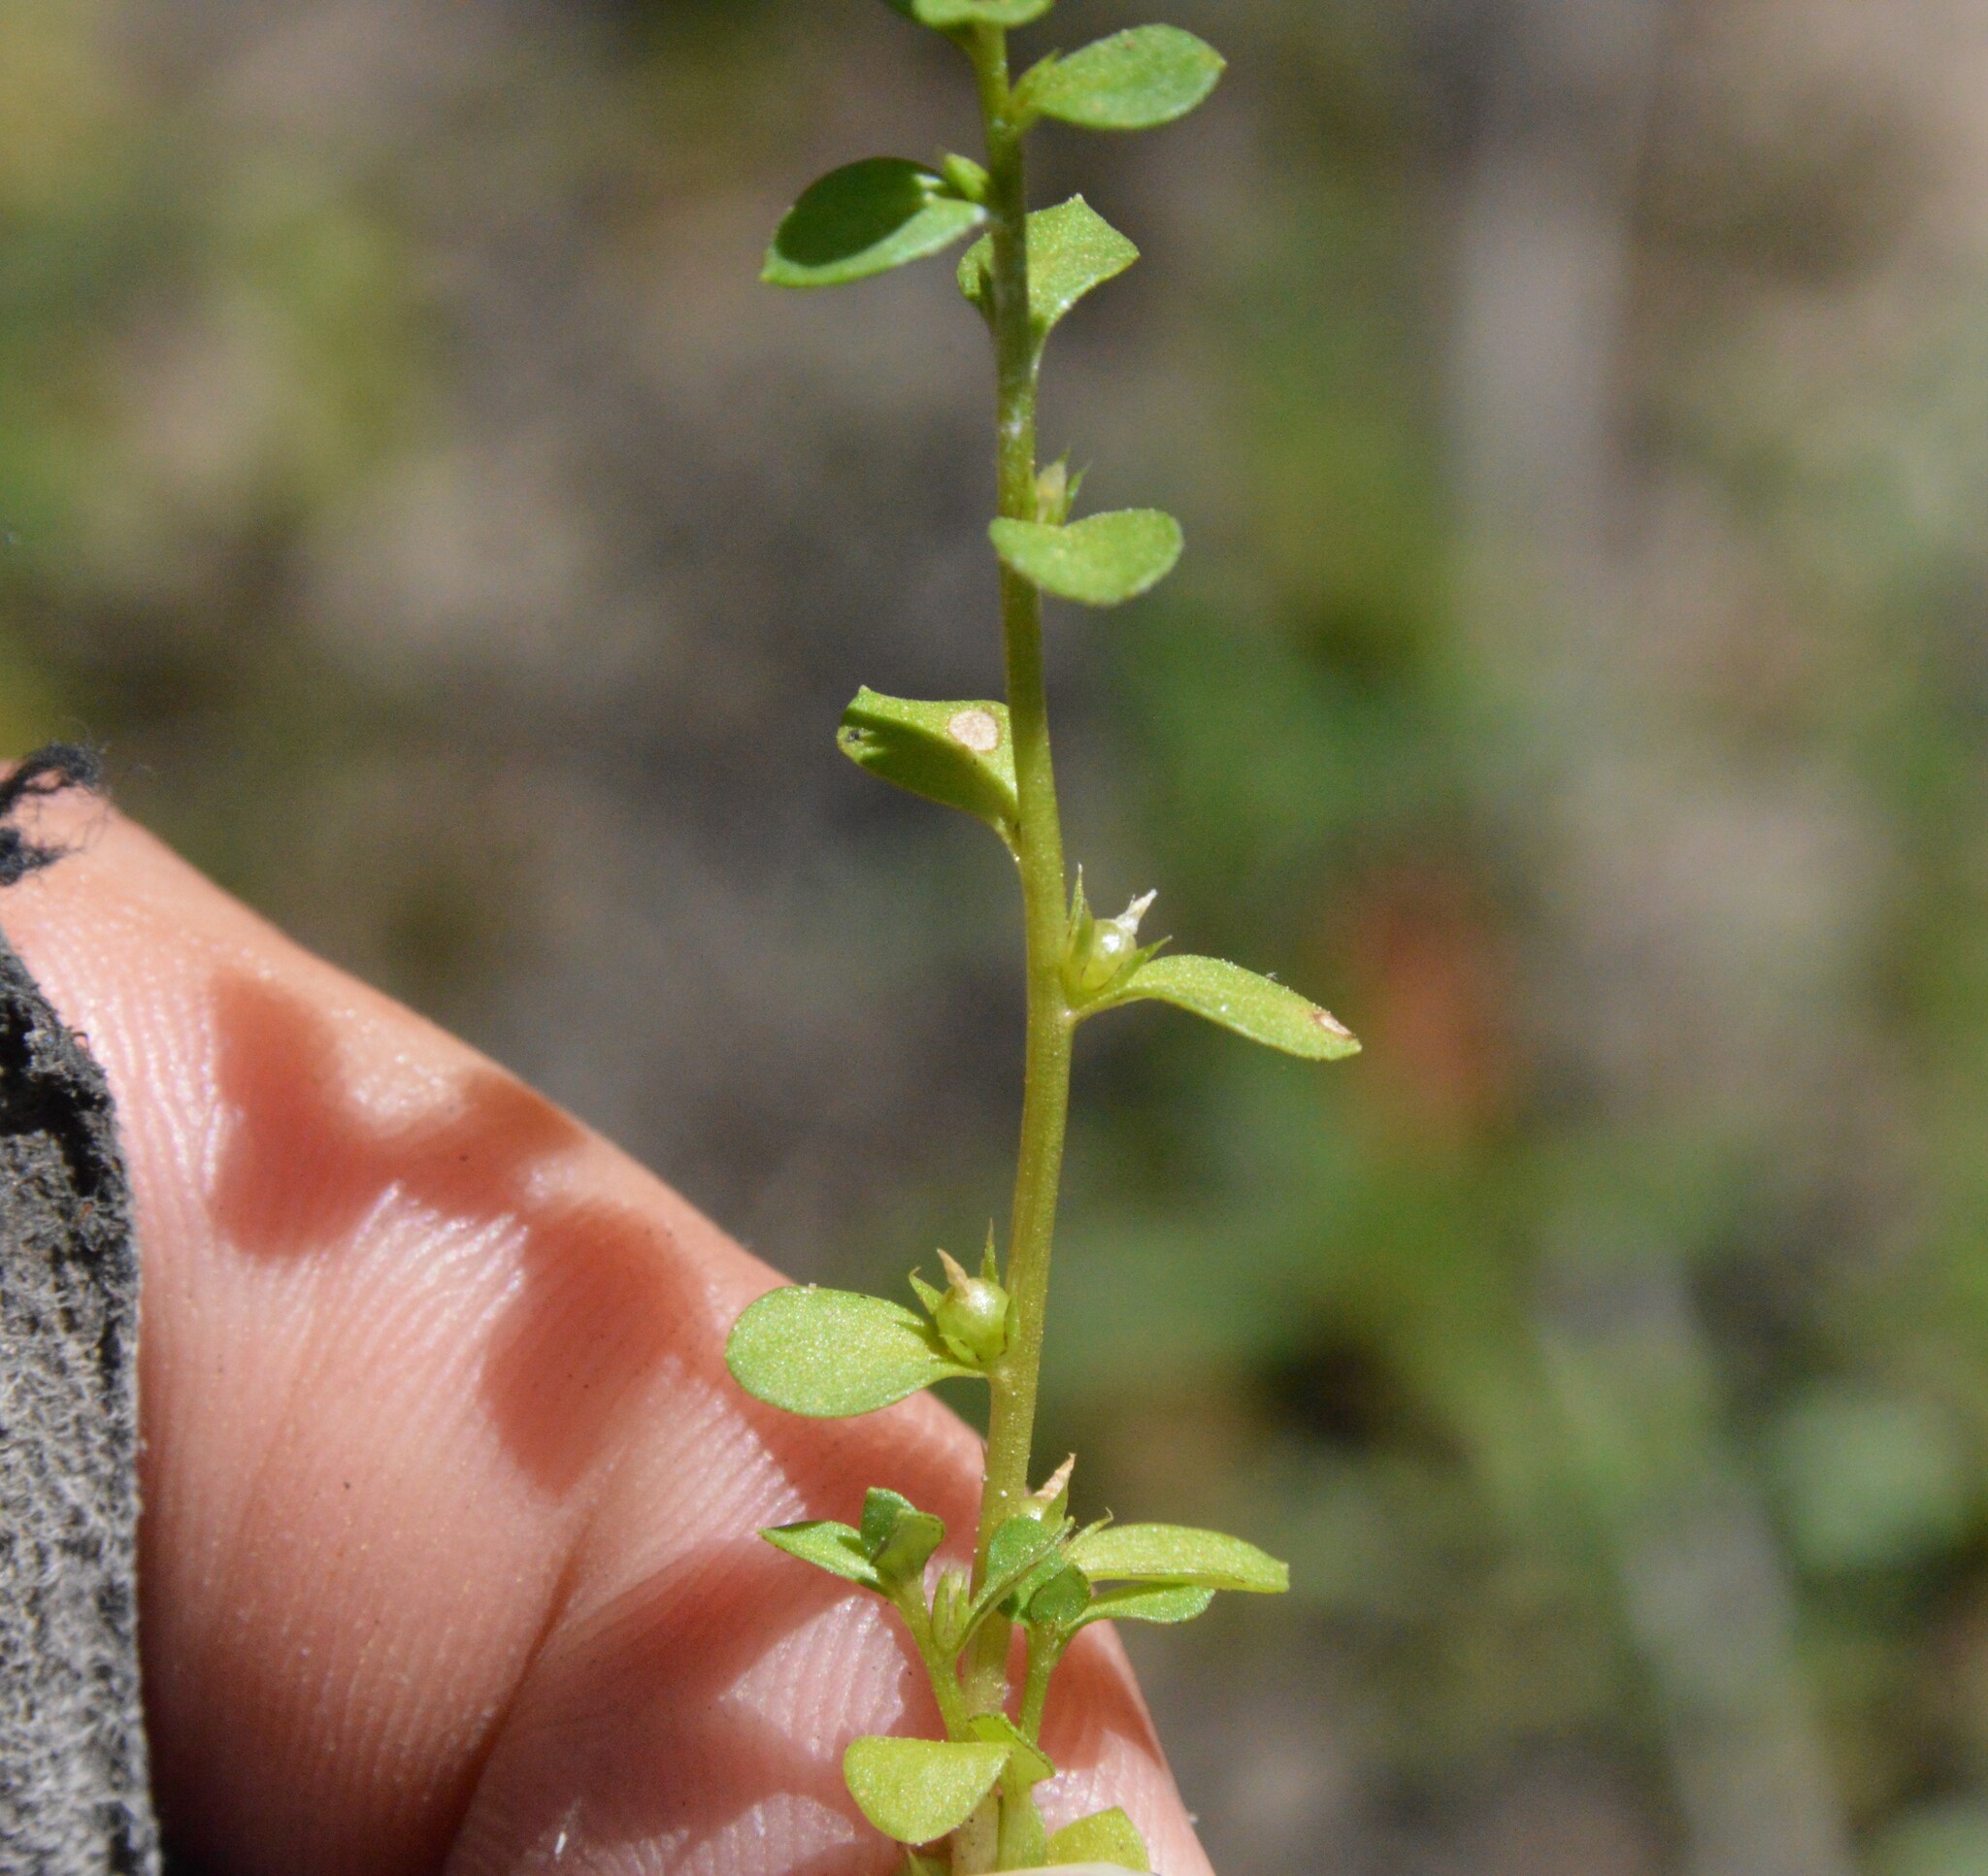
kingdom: Plantae
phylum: Tracheophyta
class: Magnoliopsida
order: Ericales
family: Primulaceae
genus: Lysimachia
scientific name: Lysimachia minima
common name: Chaffweed
